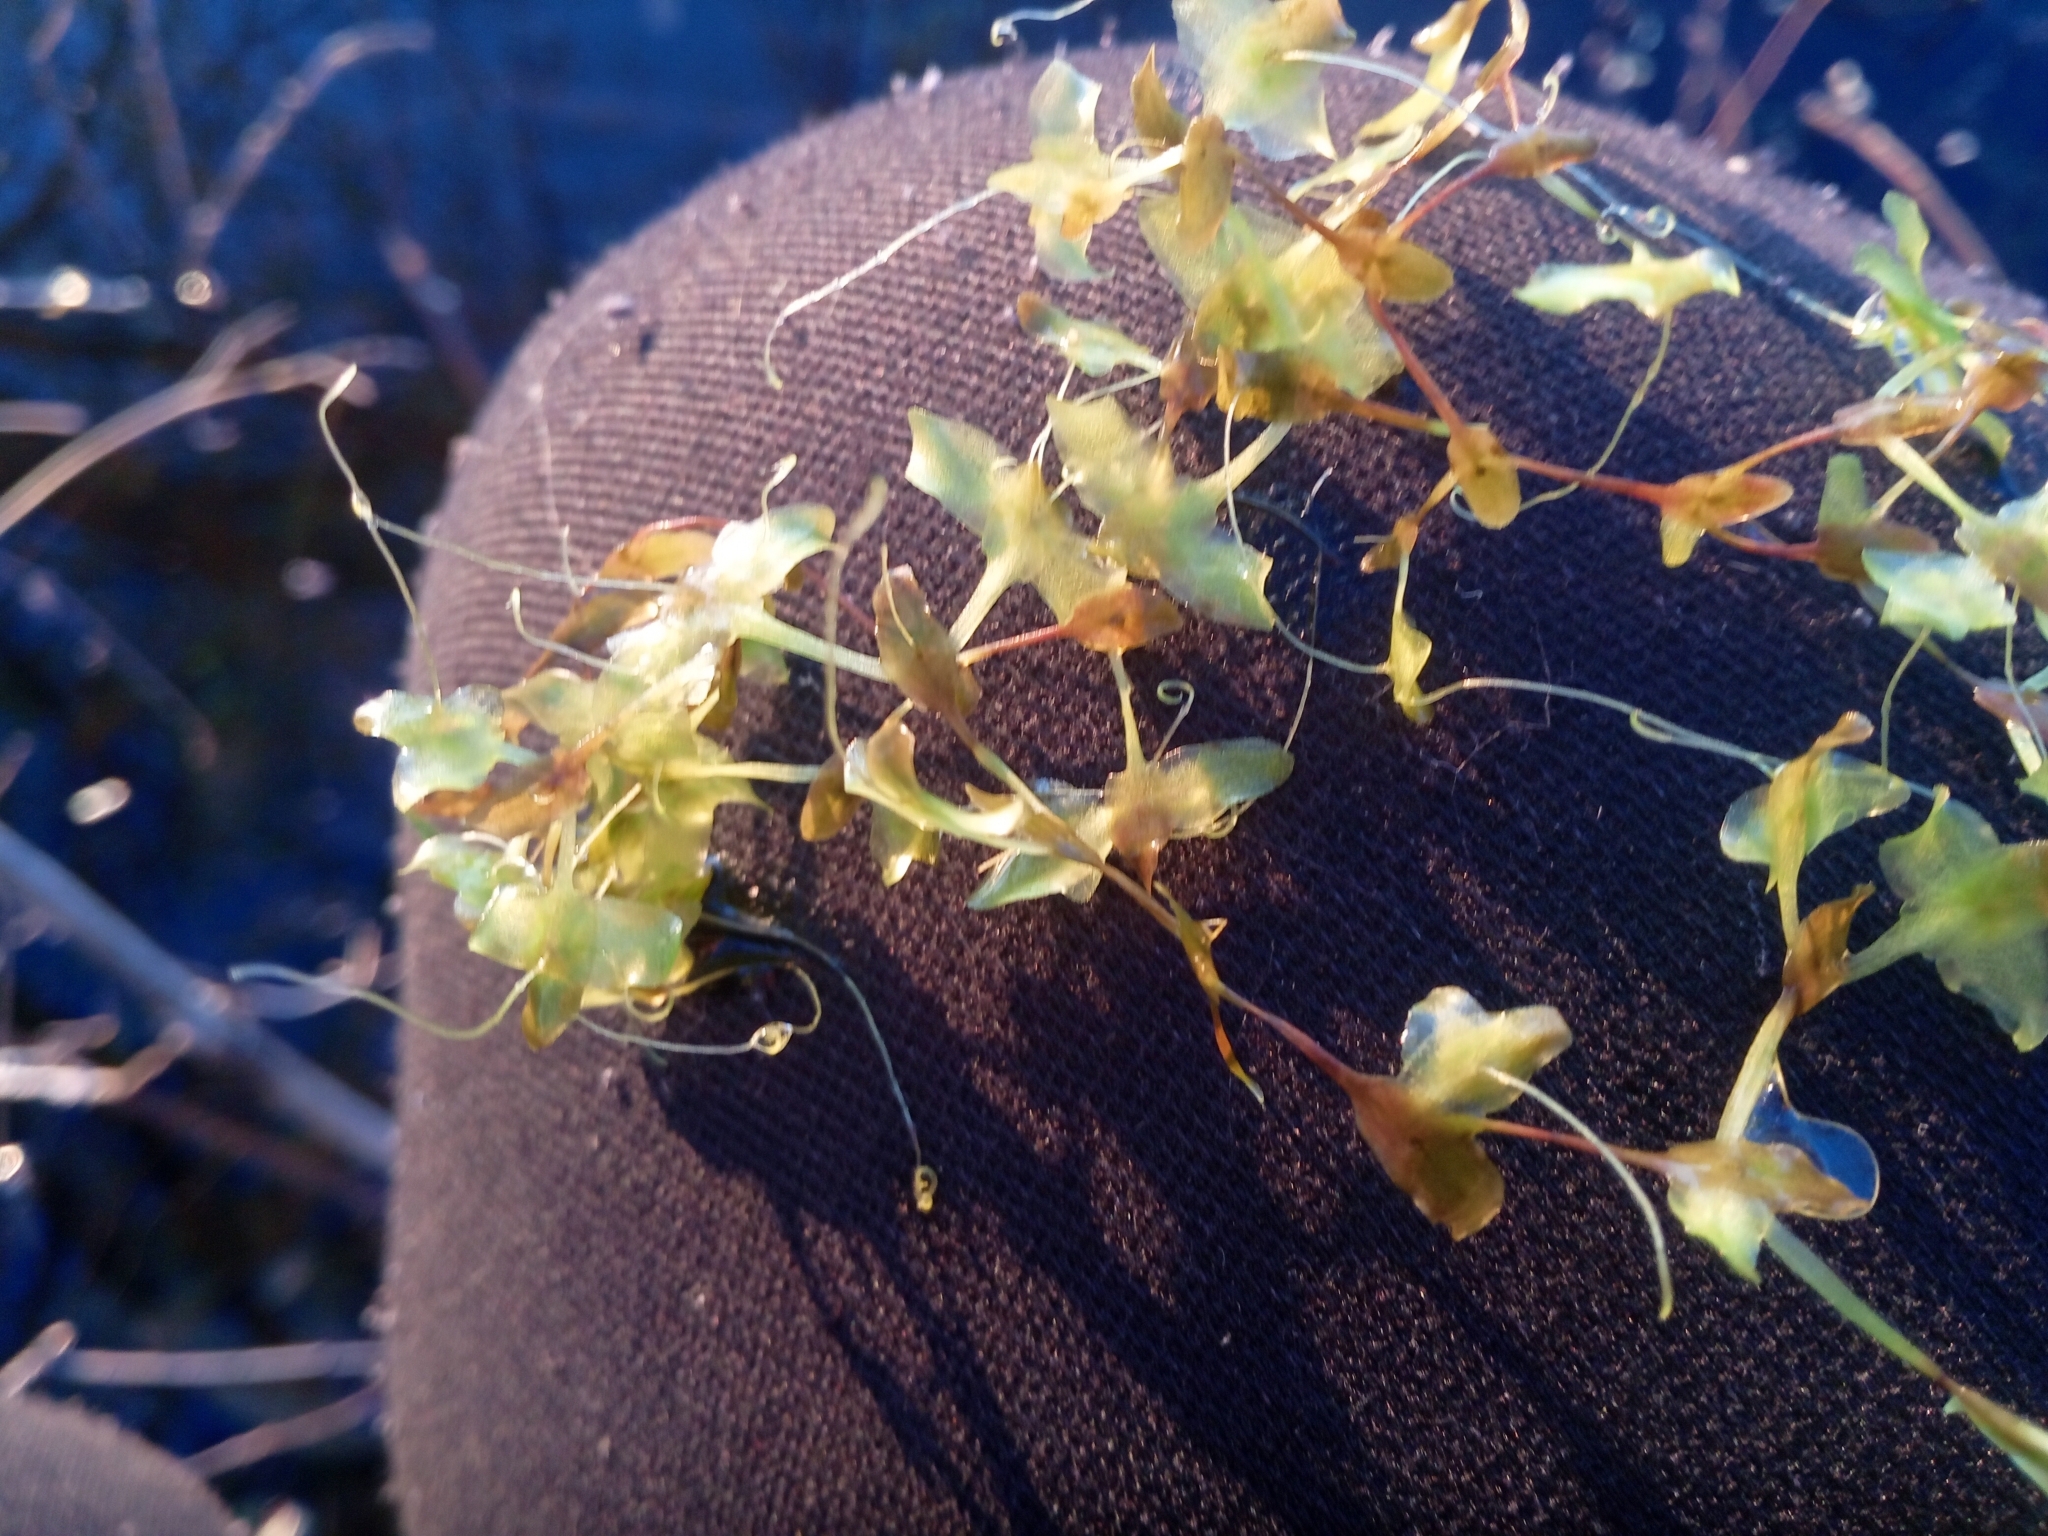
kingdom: Plantae
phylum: Tracheophyta
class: Liliopsida
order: Alismatales
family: Araceae
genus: Lemna
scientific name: Lemna trisulca
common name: Ivy-leaved duckweed
